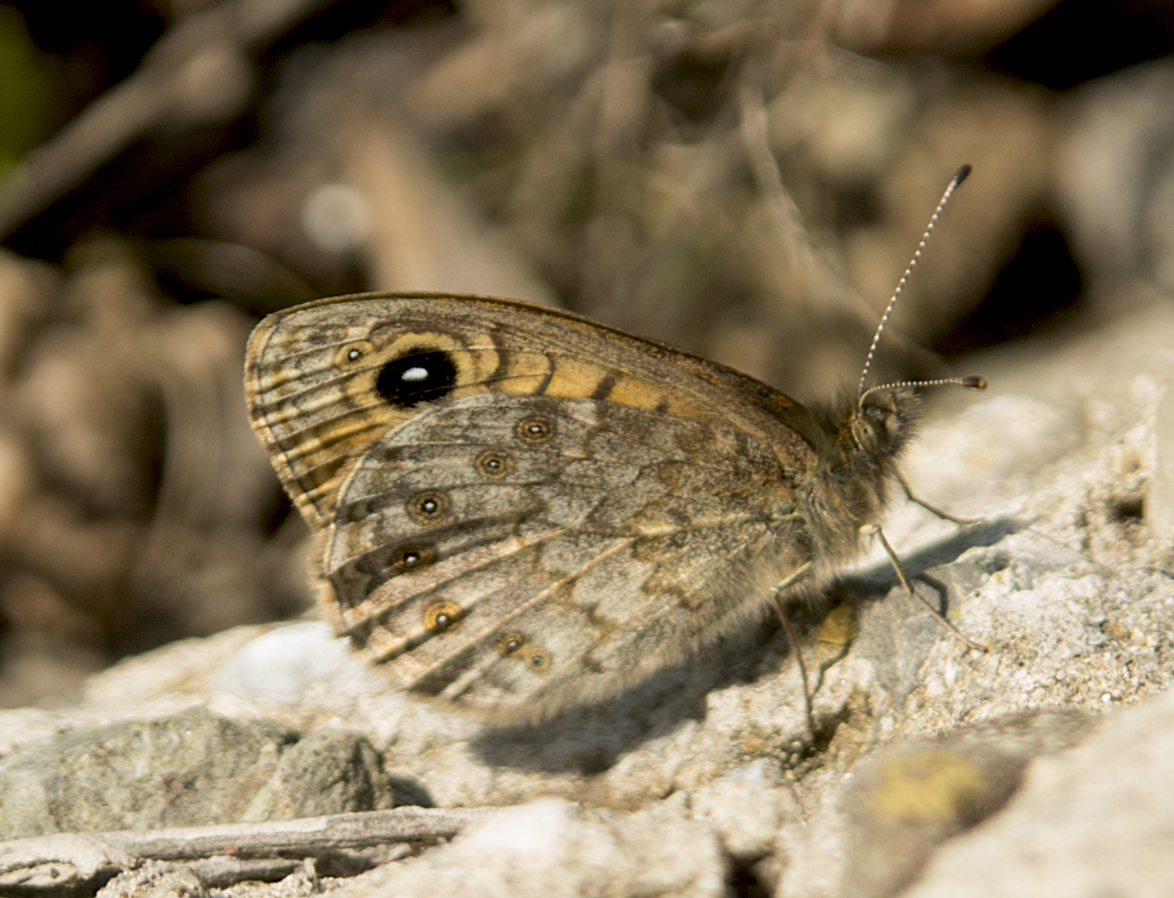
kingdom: Animalia
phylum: Arthropoda
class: Insecta
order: Lepidoptera
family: Nymphalidae
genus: Pararge
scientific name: Pararge Lasiommata megera
